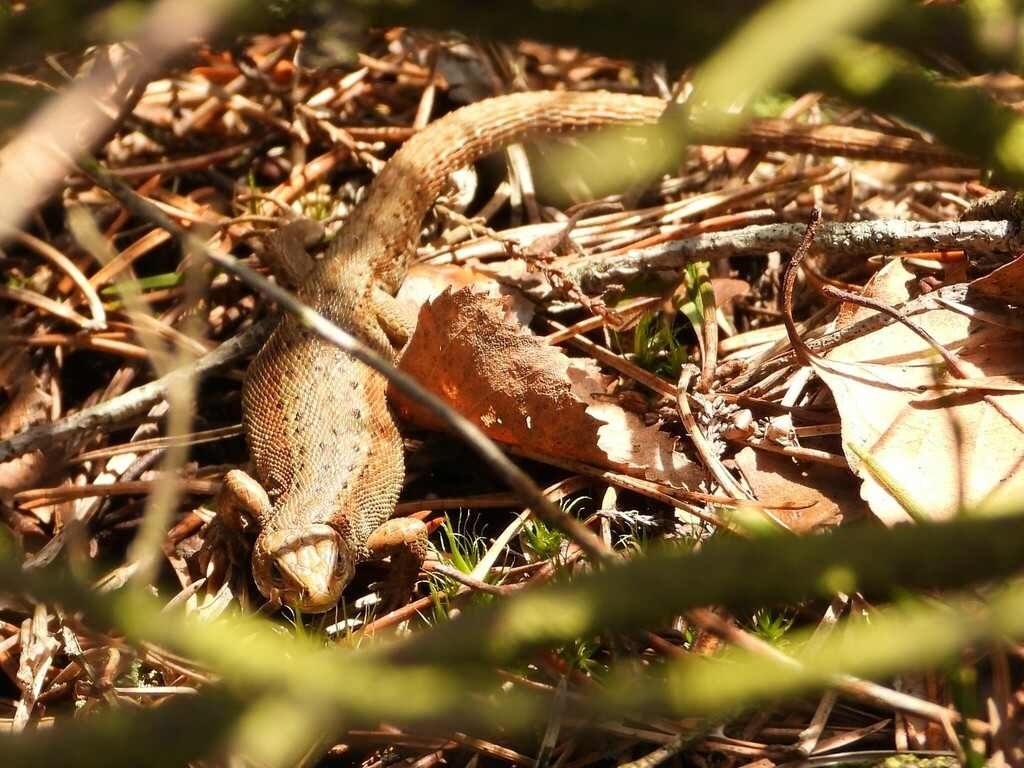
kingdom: Animalia
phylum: Chordata
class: Squamata
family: Lacertidae
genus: Zootoca
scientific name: Zootoca vivipara
